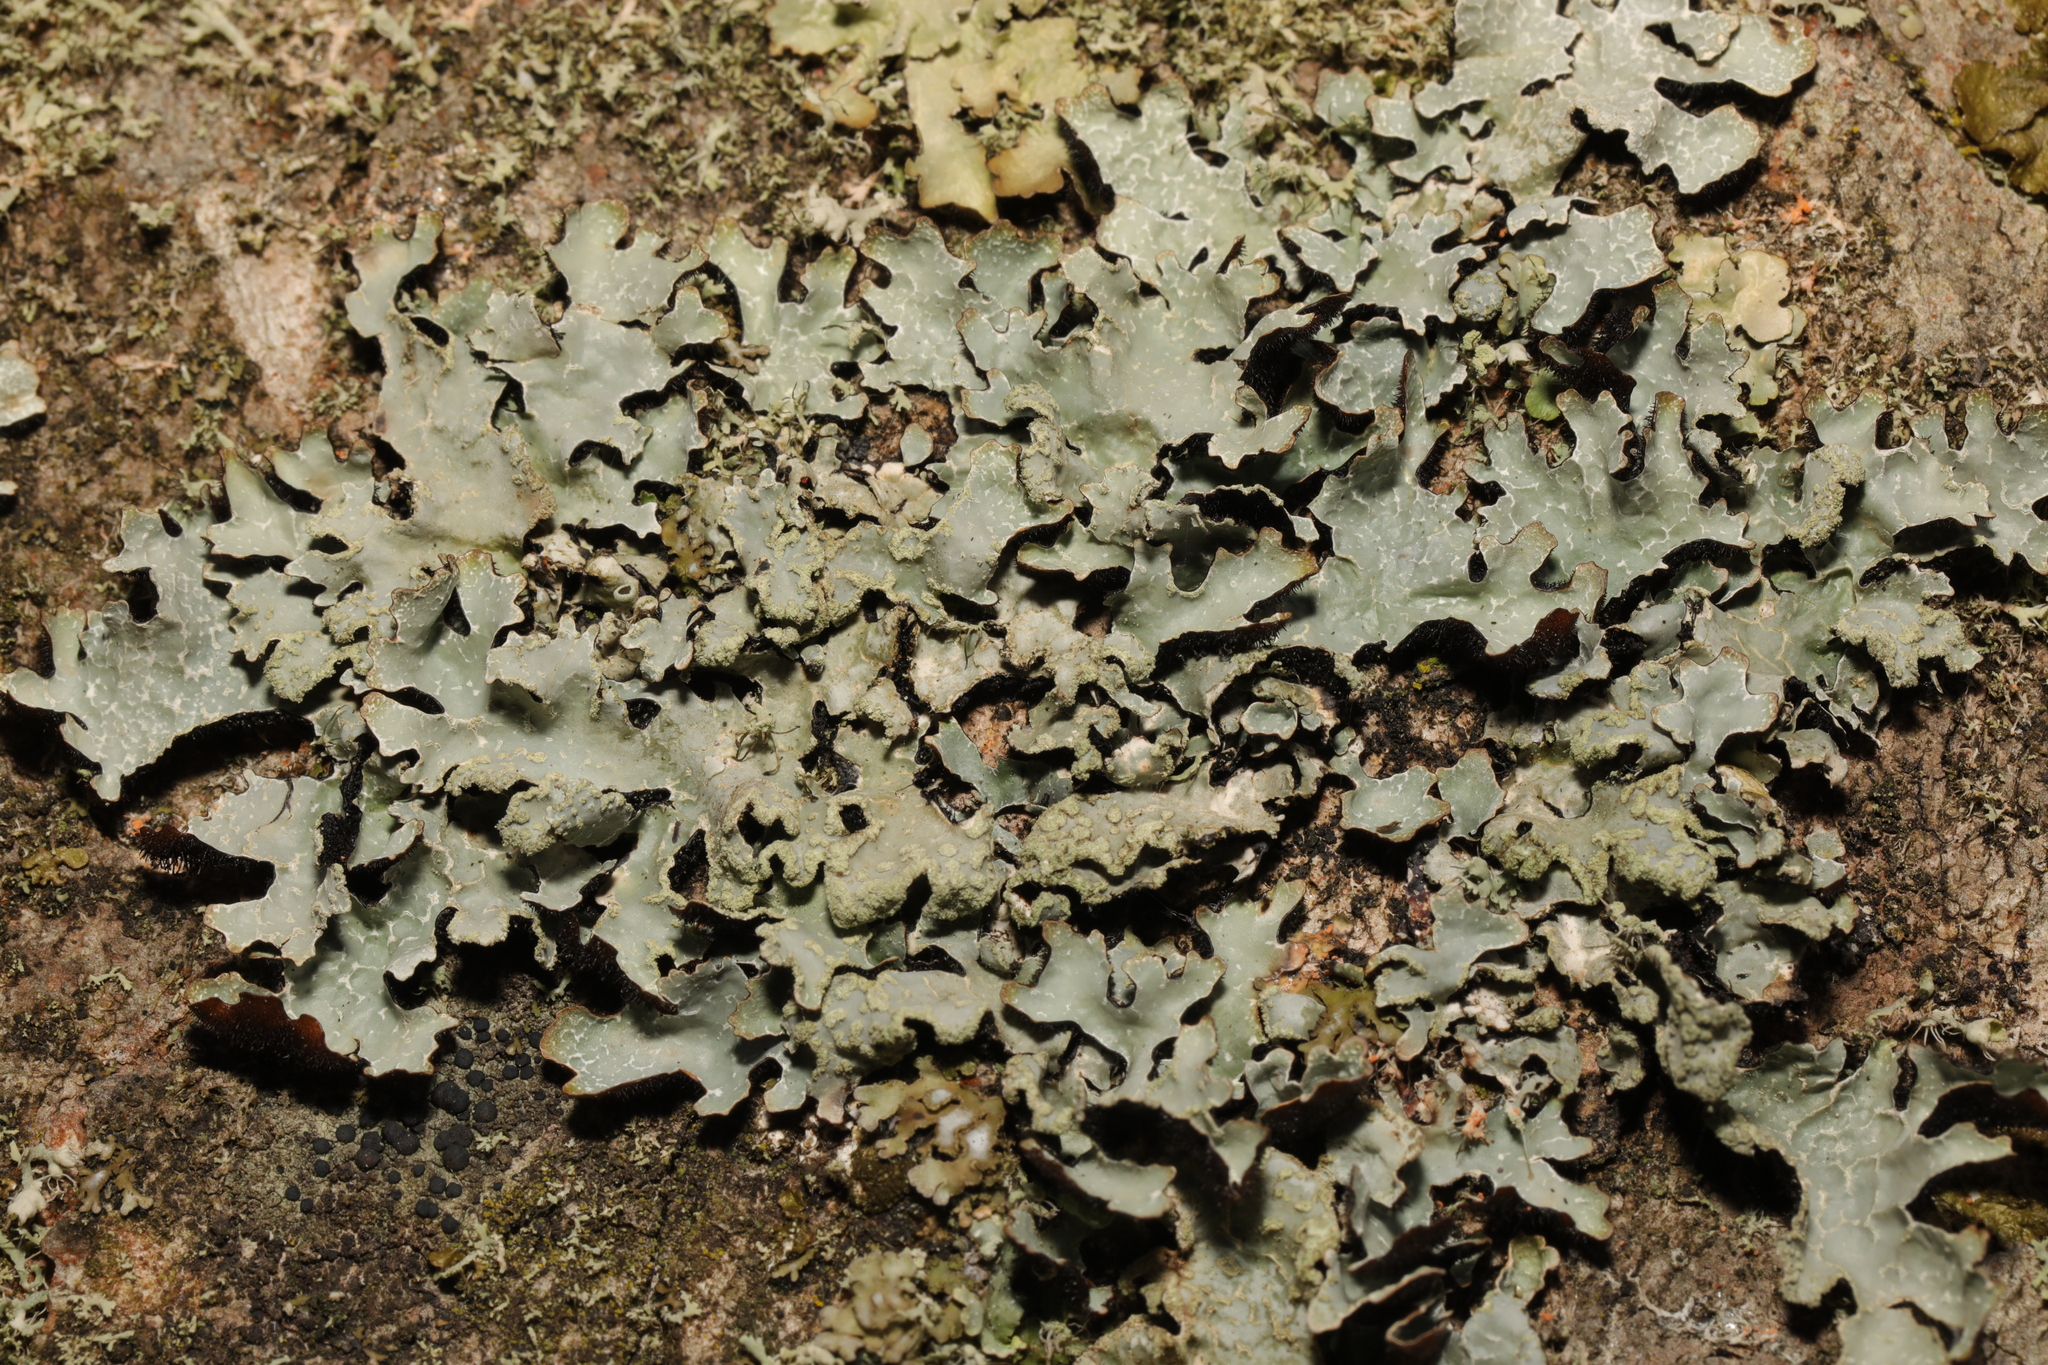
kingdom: Fungi
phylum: Ascomycota
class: Lecanoromycetes
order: Lecanorales
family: Parmeliaceae
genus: Parmelia
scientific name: Parmelia sulcata
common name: Netted shield lichen
